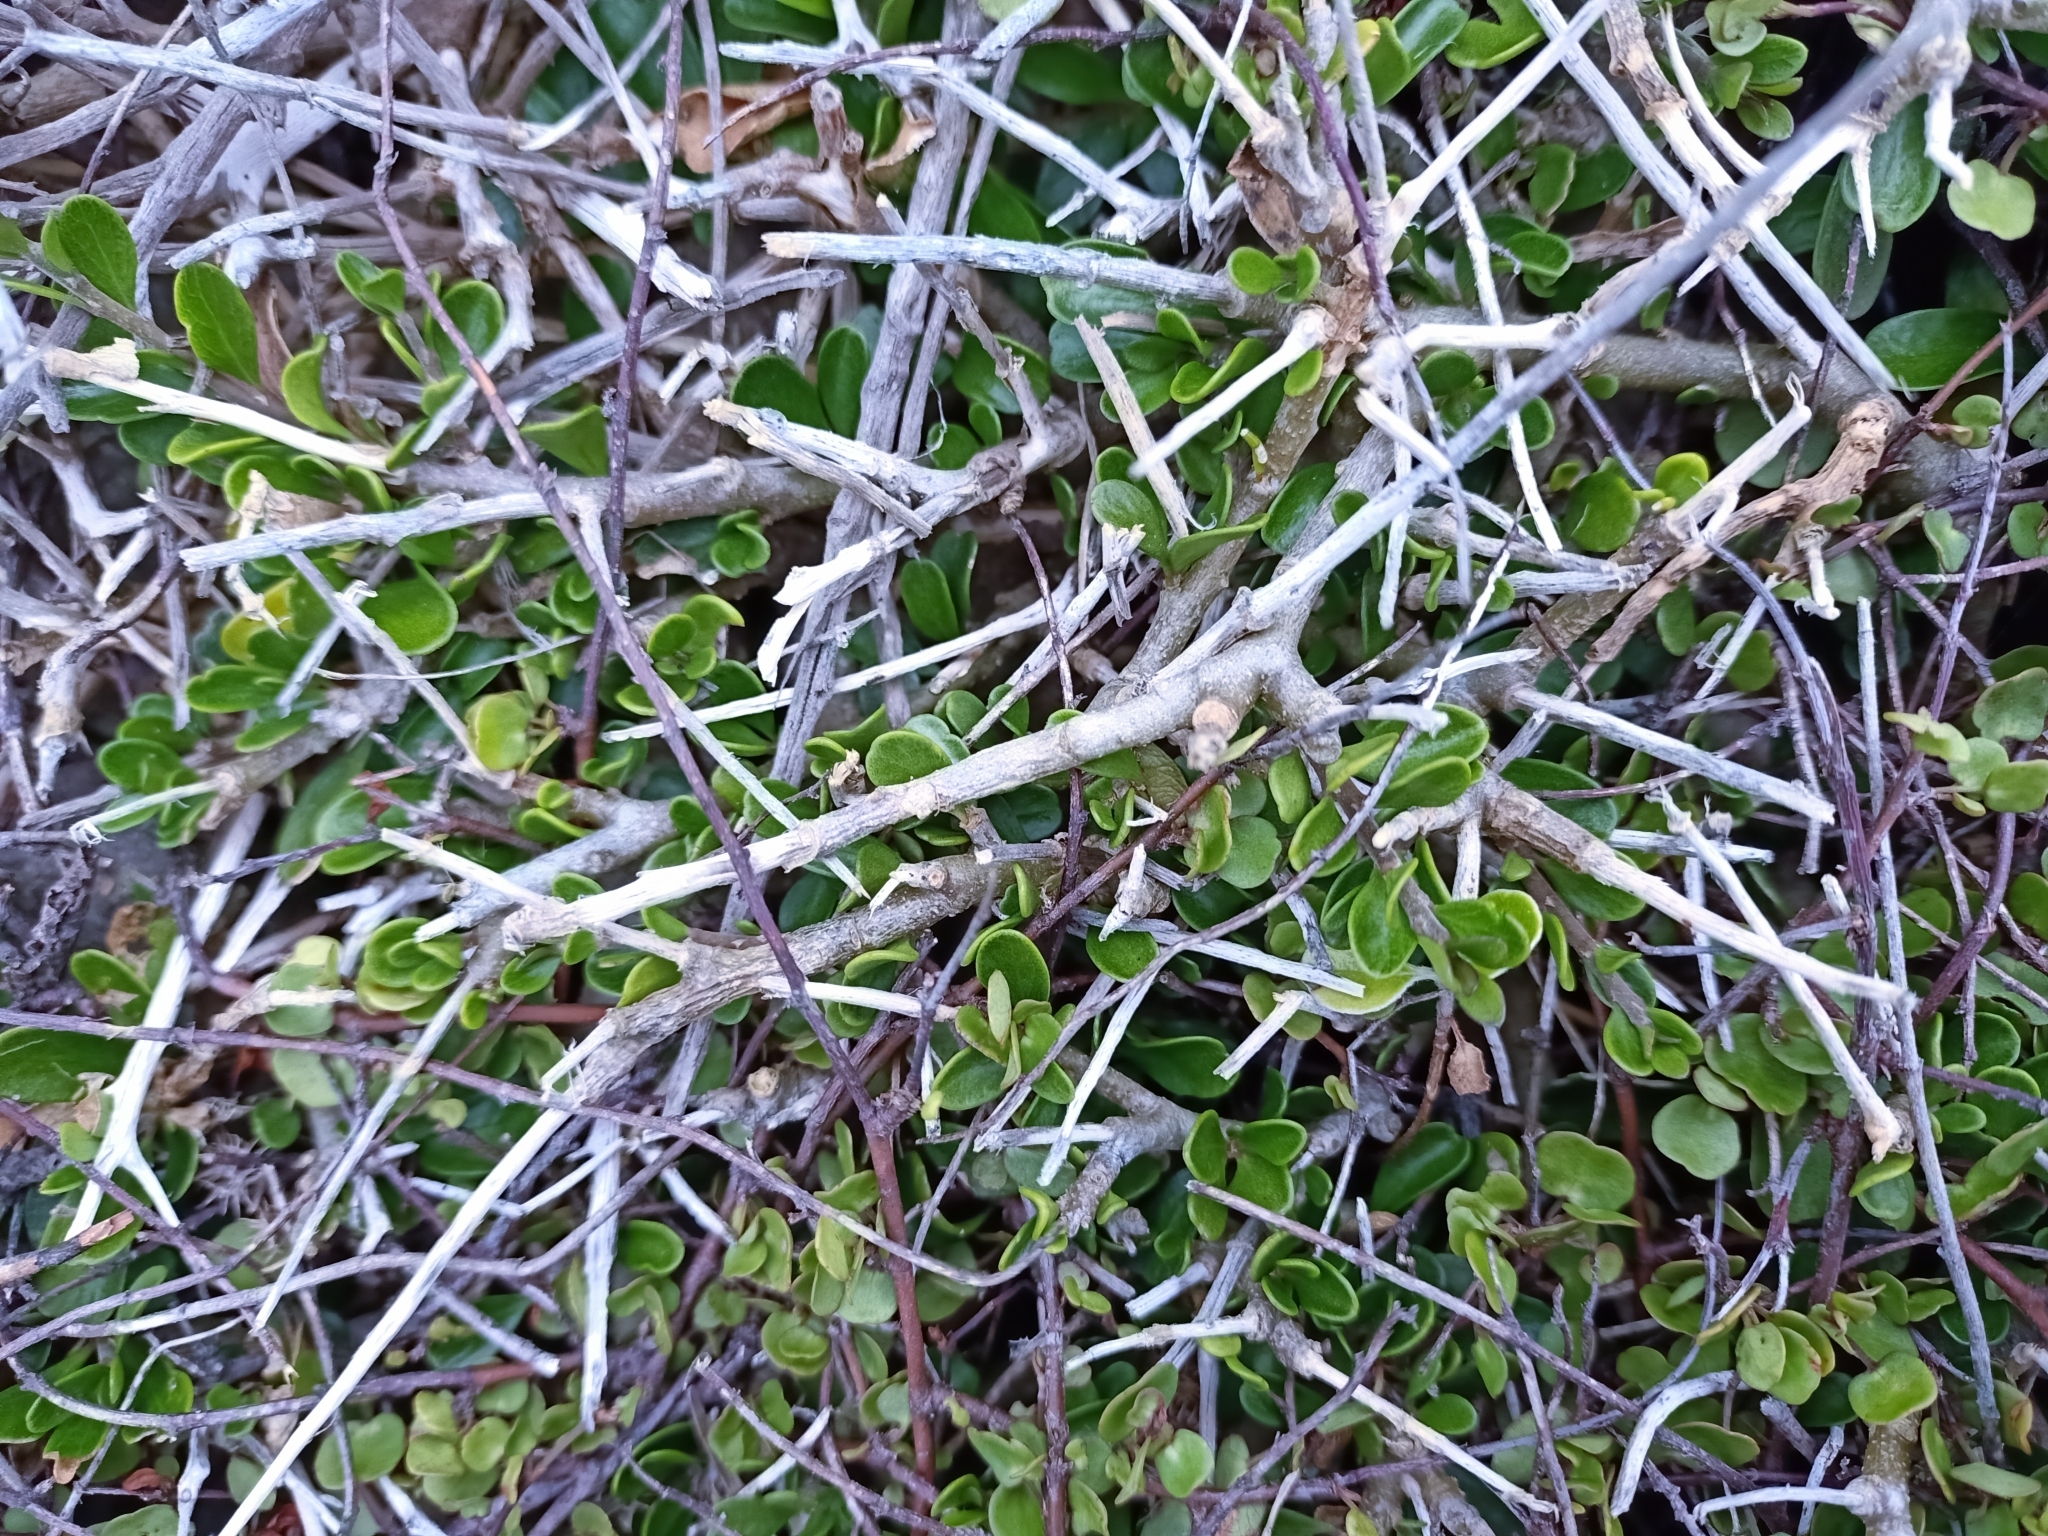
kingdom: Plantae
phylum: Tracheophyta
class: Magnoliopsida
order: Malpighiales
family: Violaceae
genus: Melicytus
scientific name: Melicytus crassifolius
